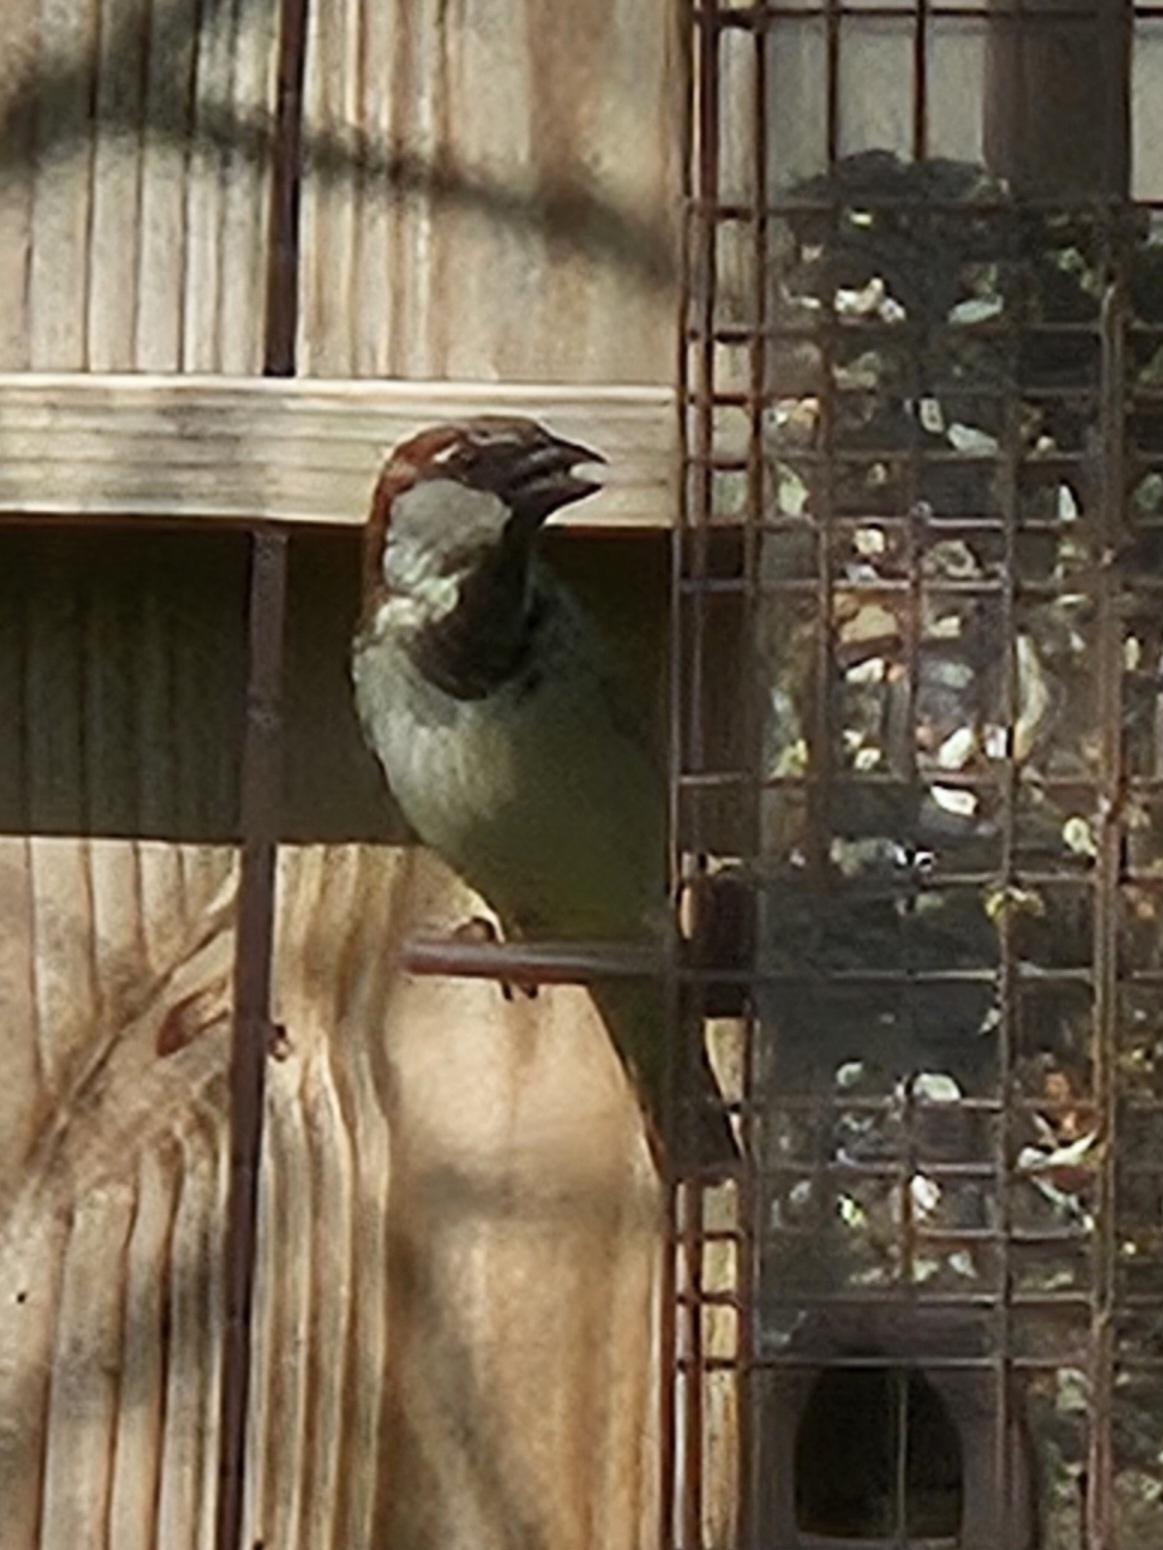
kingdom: Animalia
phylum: Chordata
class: Aves
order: Passeriformes
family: Passeridae
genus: Passer
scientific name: Passer domesticus
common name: House sparrow
